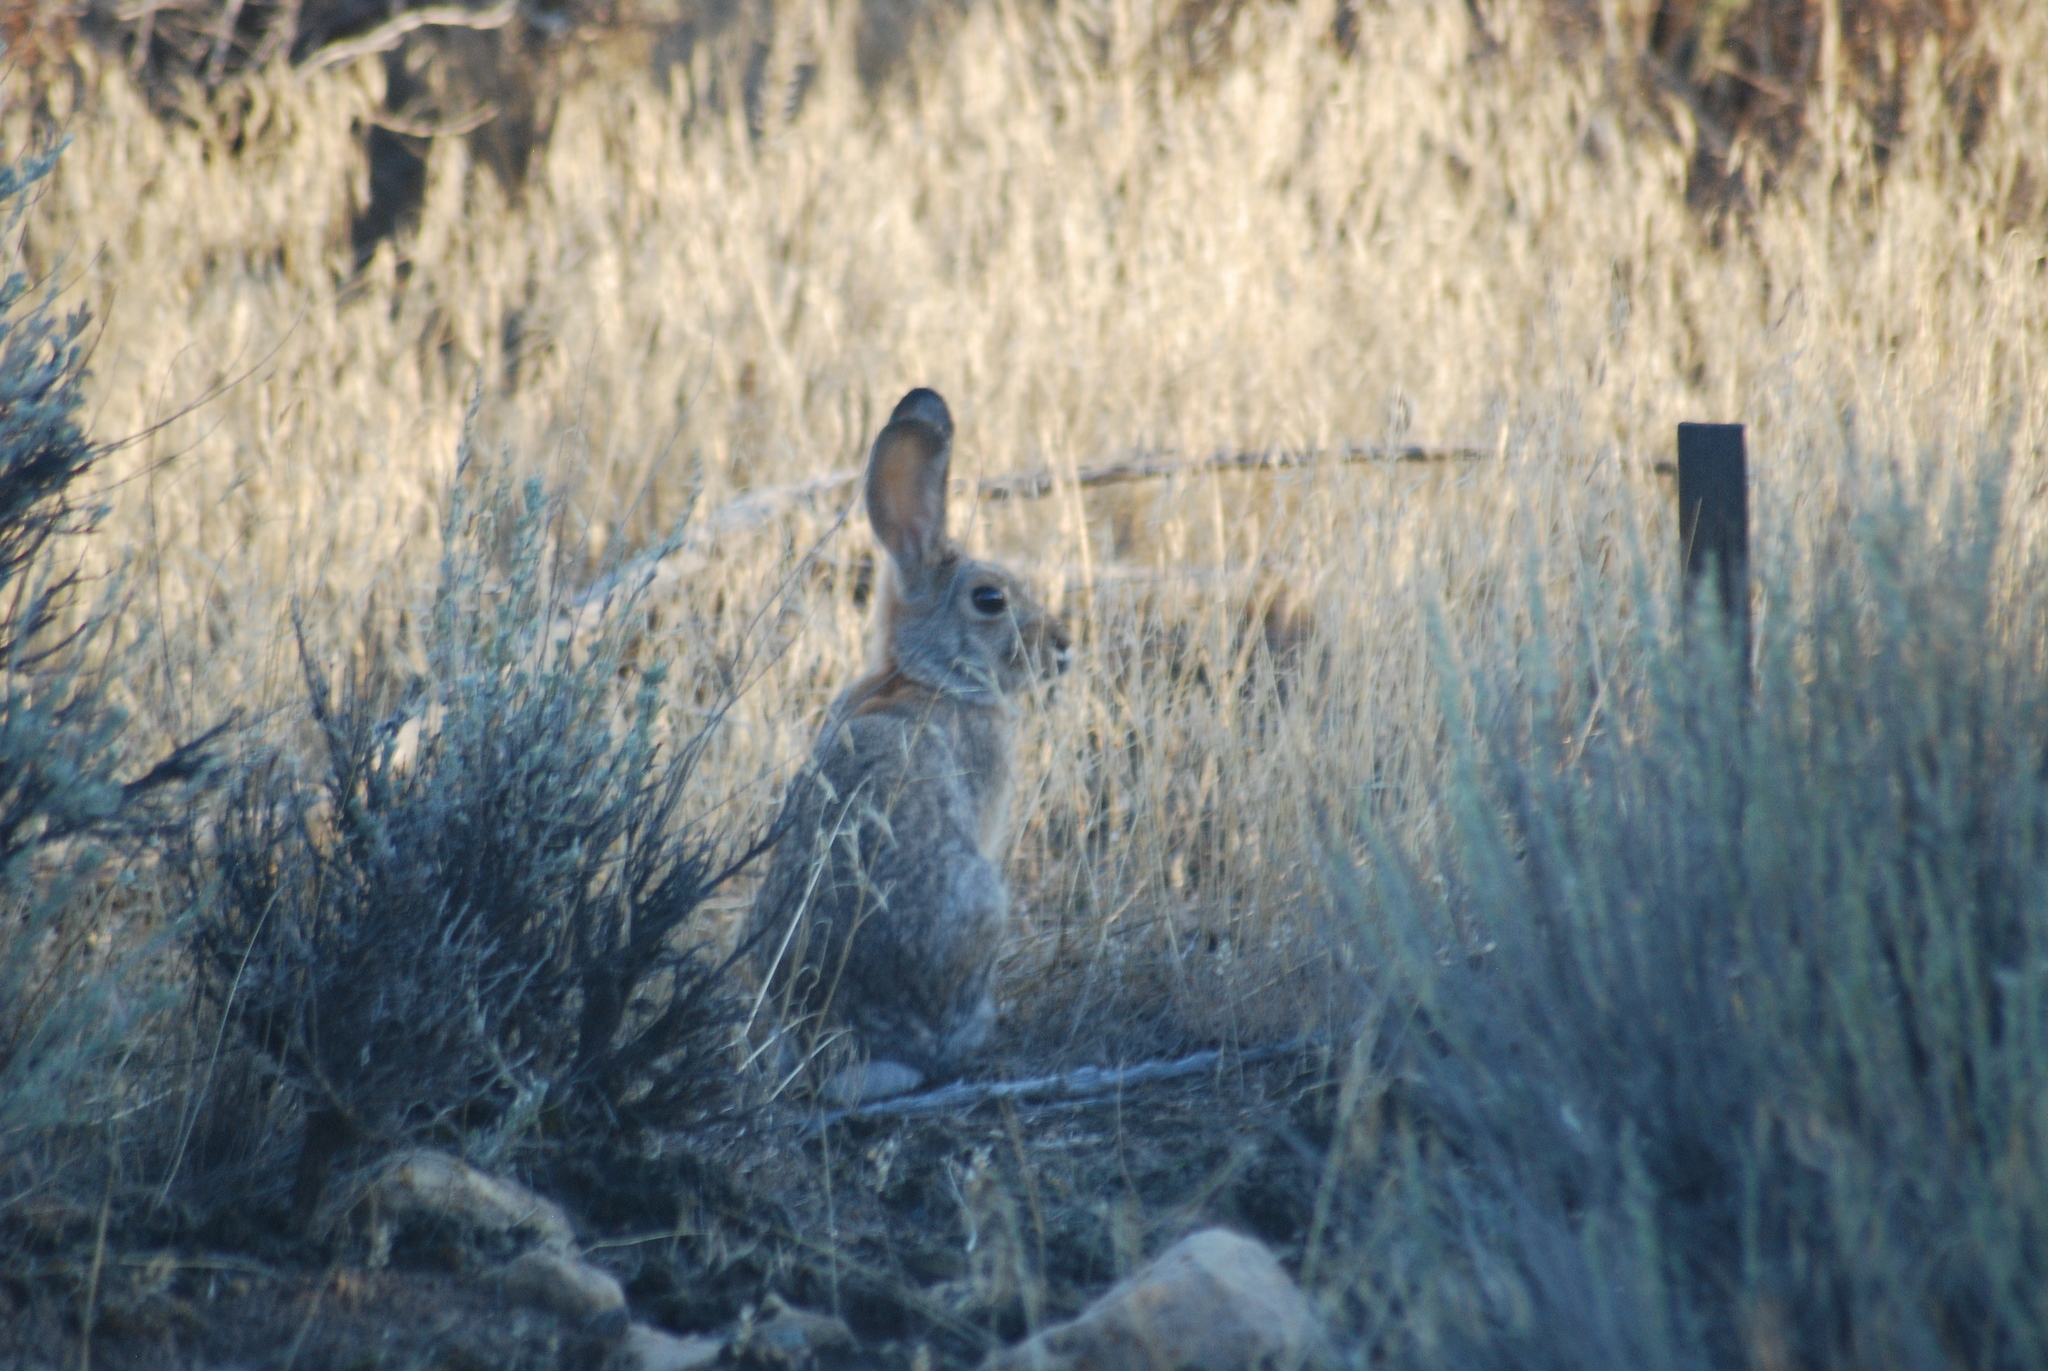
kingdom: Animalia
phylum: Chordata
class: Mammalia
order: Lagomorpha
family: Leporidae
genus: Sylvilagus
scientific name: Sylvilagus audubonii
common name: Desert cottontail
